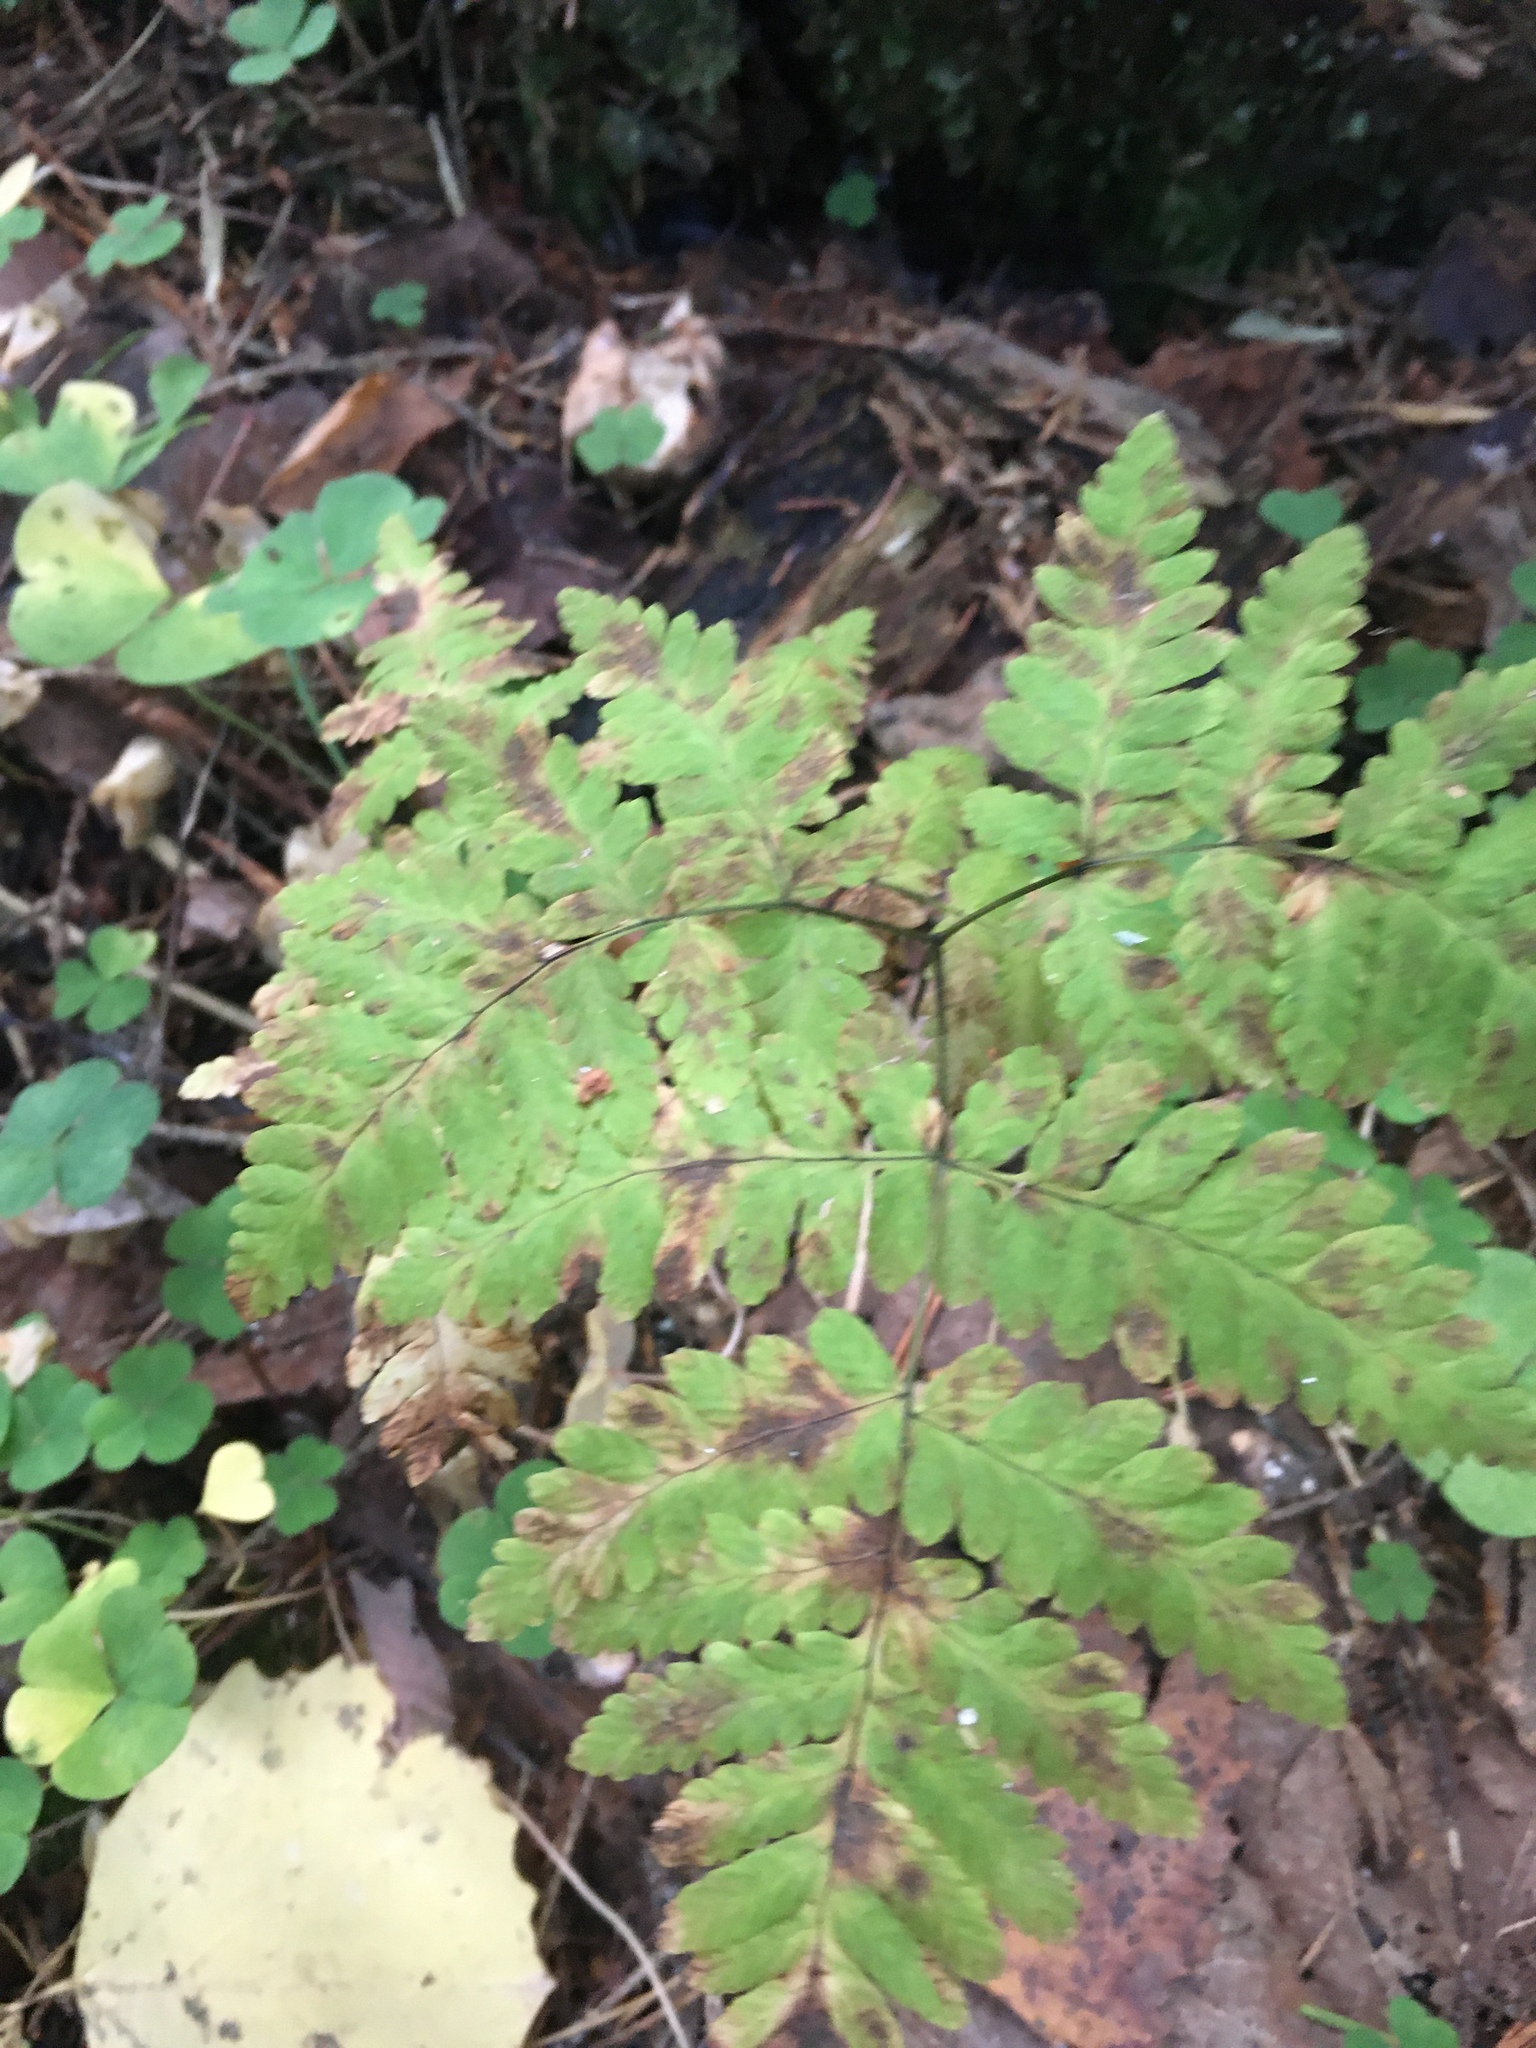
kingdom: Plantae
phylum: Tracheophyta
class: Polypodiopsida
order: Polypodiales
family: Cystopteridaceae
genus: Gymnocarpium
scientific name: Gymnocarpium dryopteris
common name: Oak fern
